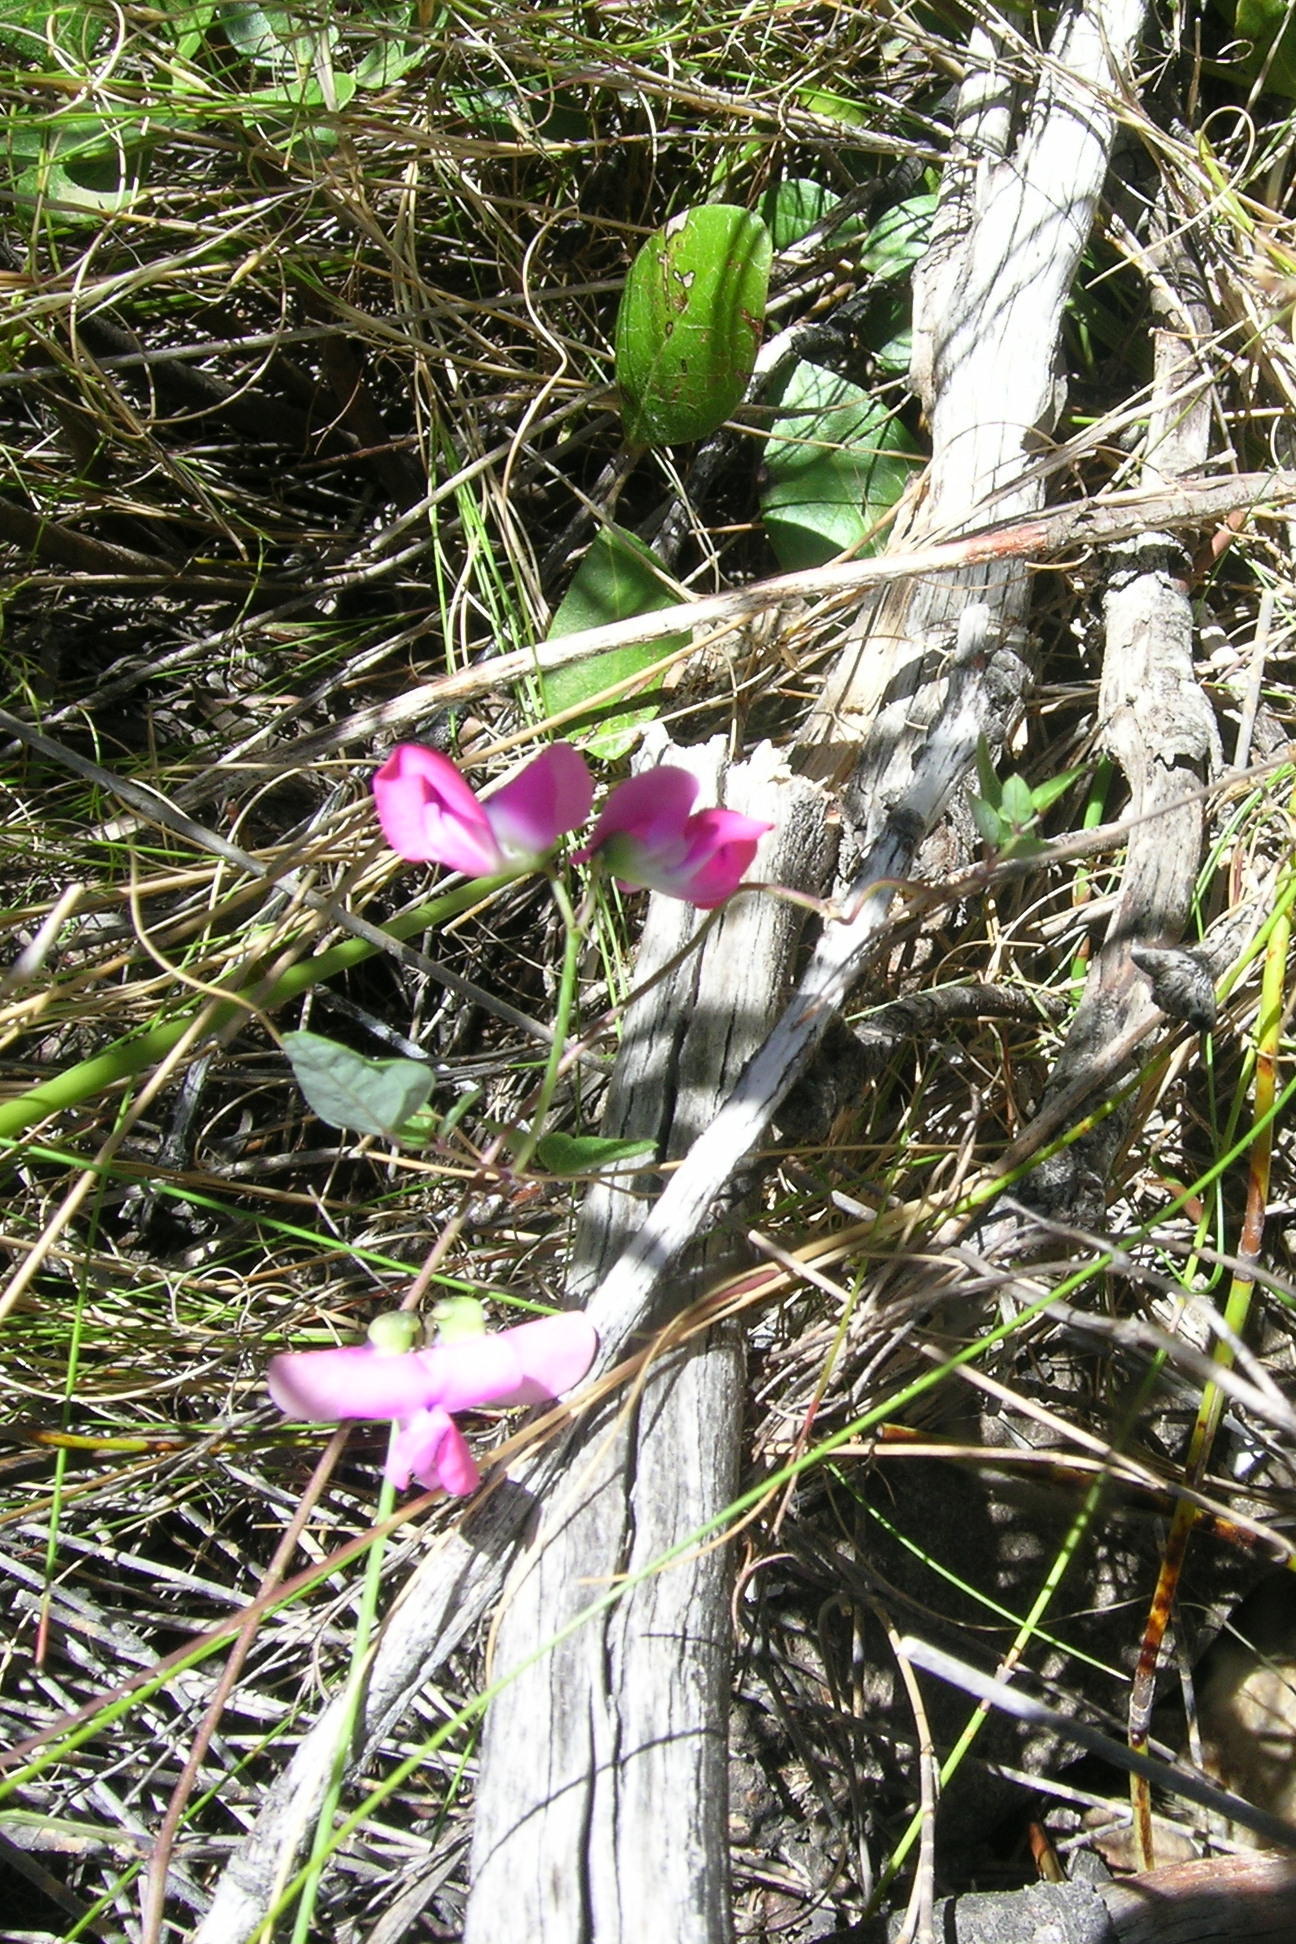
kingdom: Plantae
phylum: Tracheophyta
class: Magnoliopsida
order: Fabales
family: Fabaceae
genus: Dipogon
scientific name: Dipogon lignosus
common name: Okie bean
